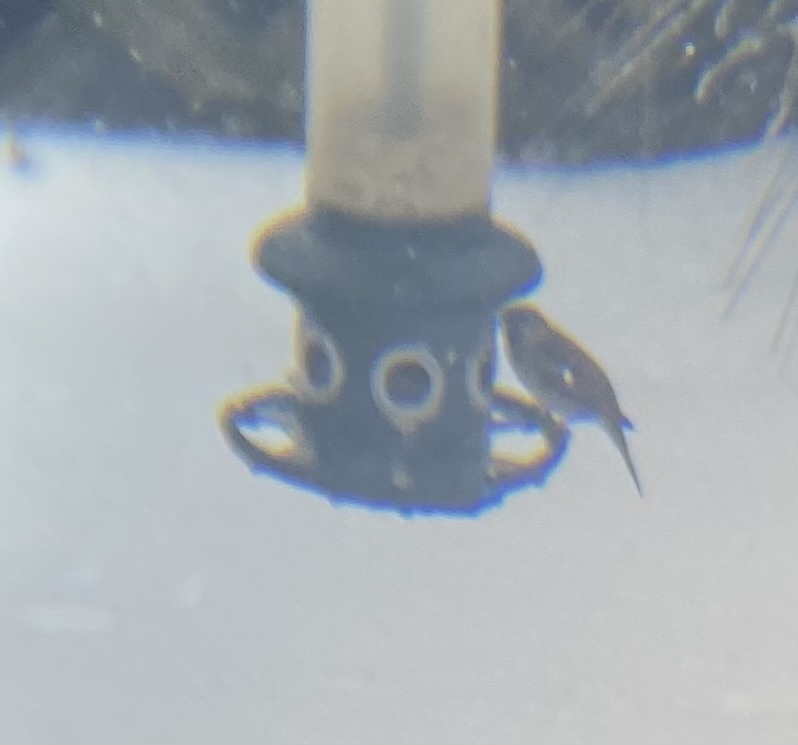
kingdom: Animalia
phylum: Chordata
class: Aves
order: Passeriformes
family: Passeridae
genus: Passer
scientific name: Passer domesticus
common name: House sparrow
